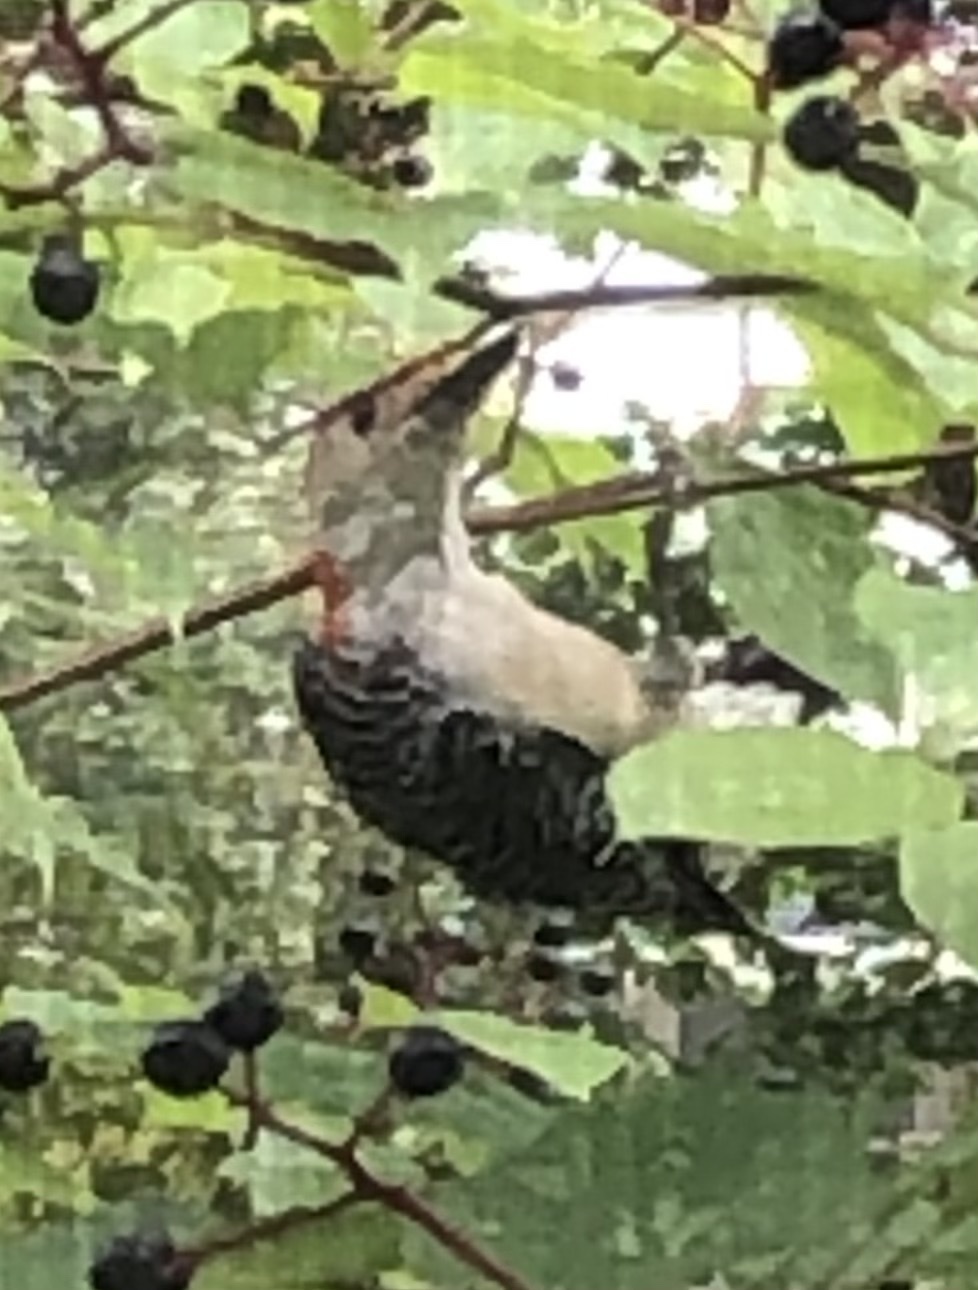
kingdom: Animalia
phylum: Chordata
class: Aves
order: Piciformes
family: Picidae
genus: Melanerpes
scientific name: Melanerpes carolinus
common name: Red-bellied woodpecker
